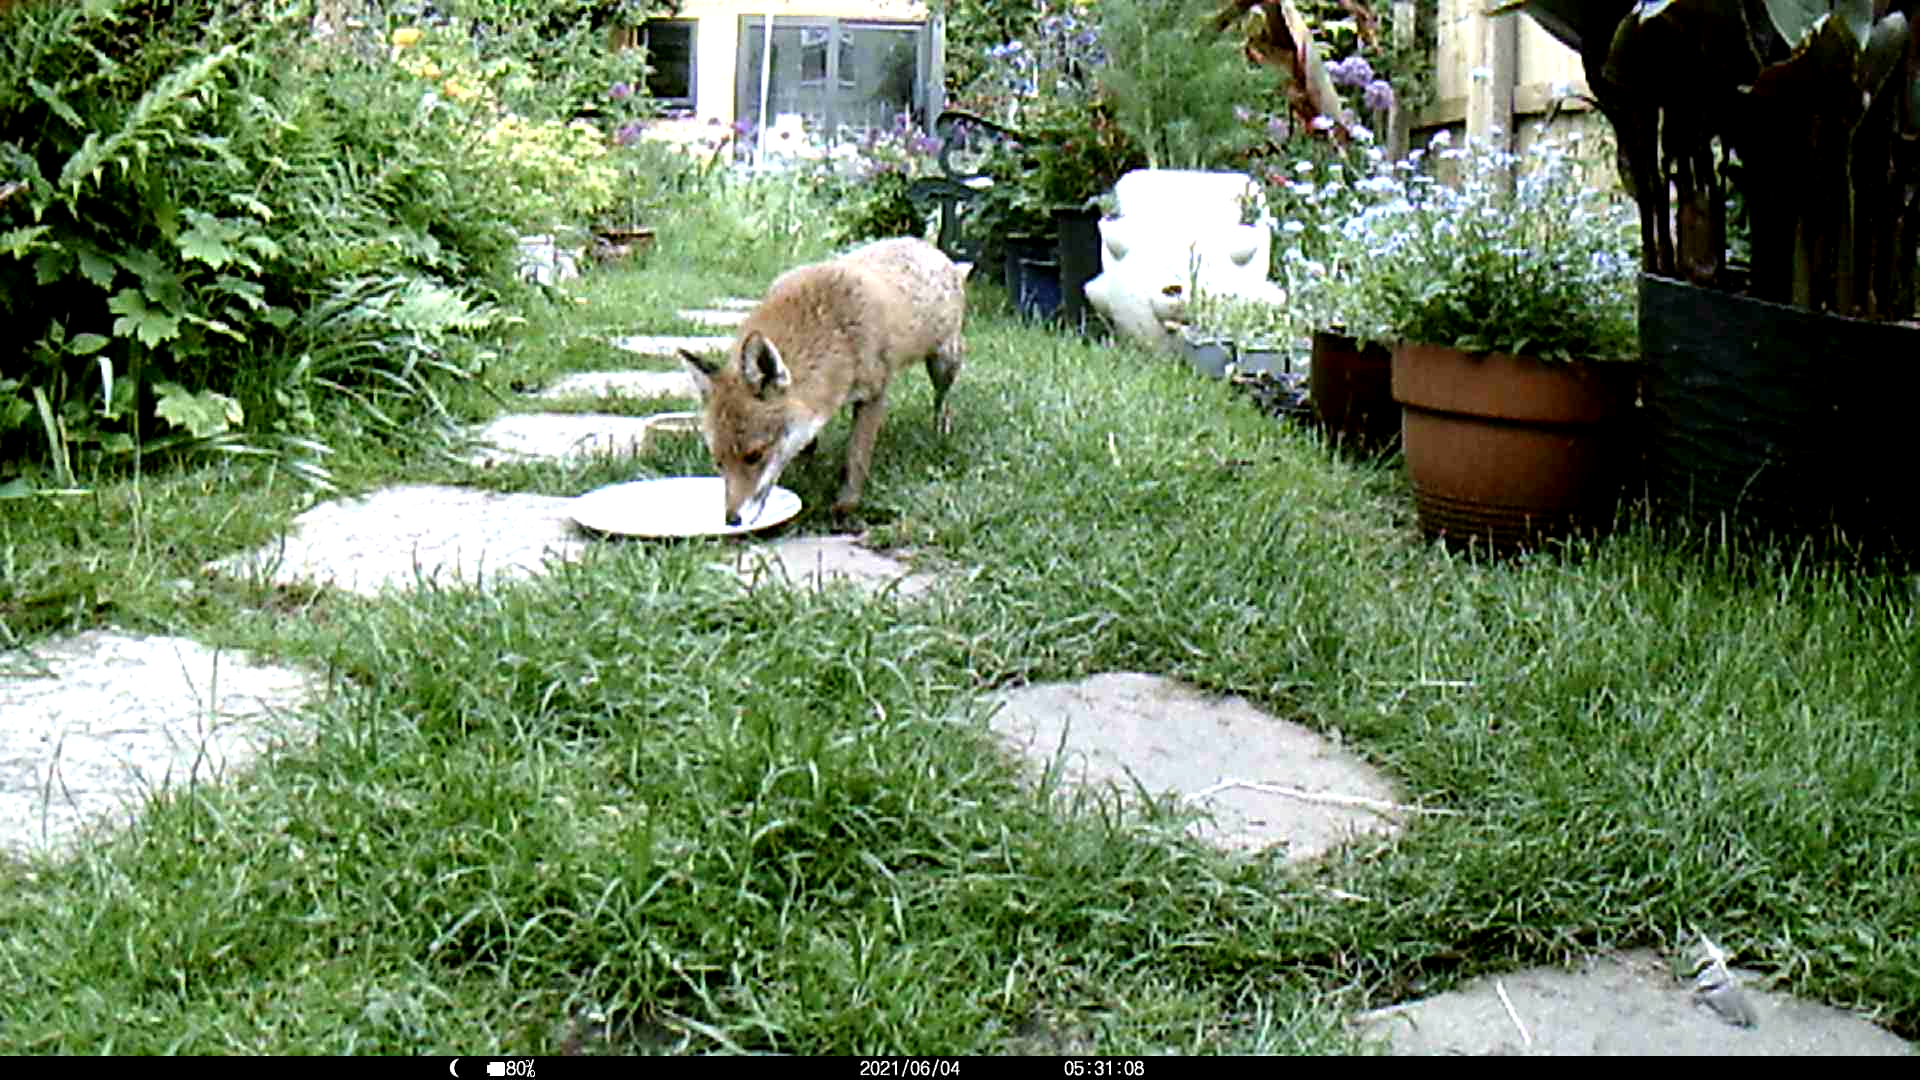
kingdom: Animalia
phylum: Chordata
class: Mammalia
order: Carnivora
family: Canidae
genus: Vulpes
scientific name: Vulpes vulpes
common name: Red fox
